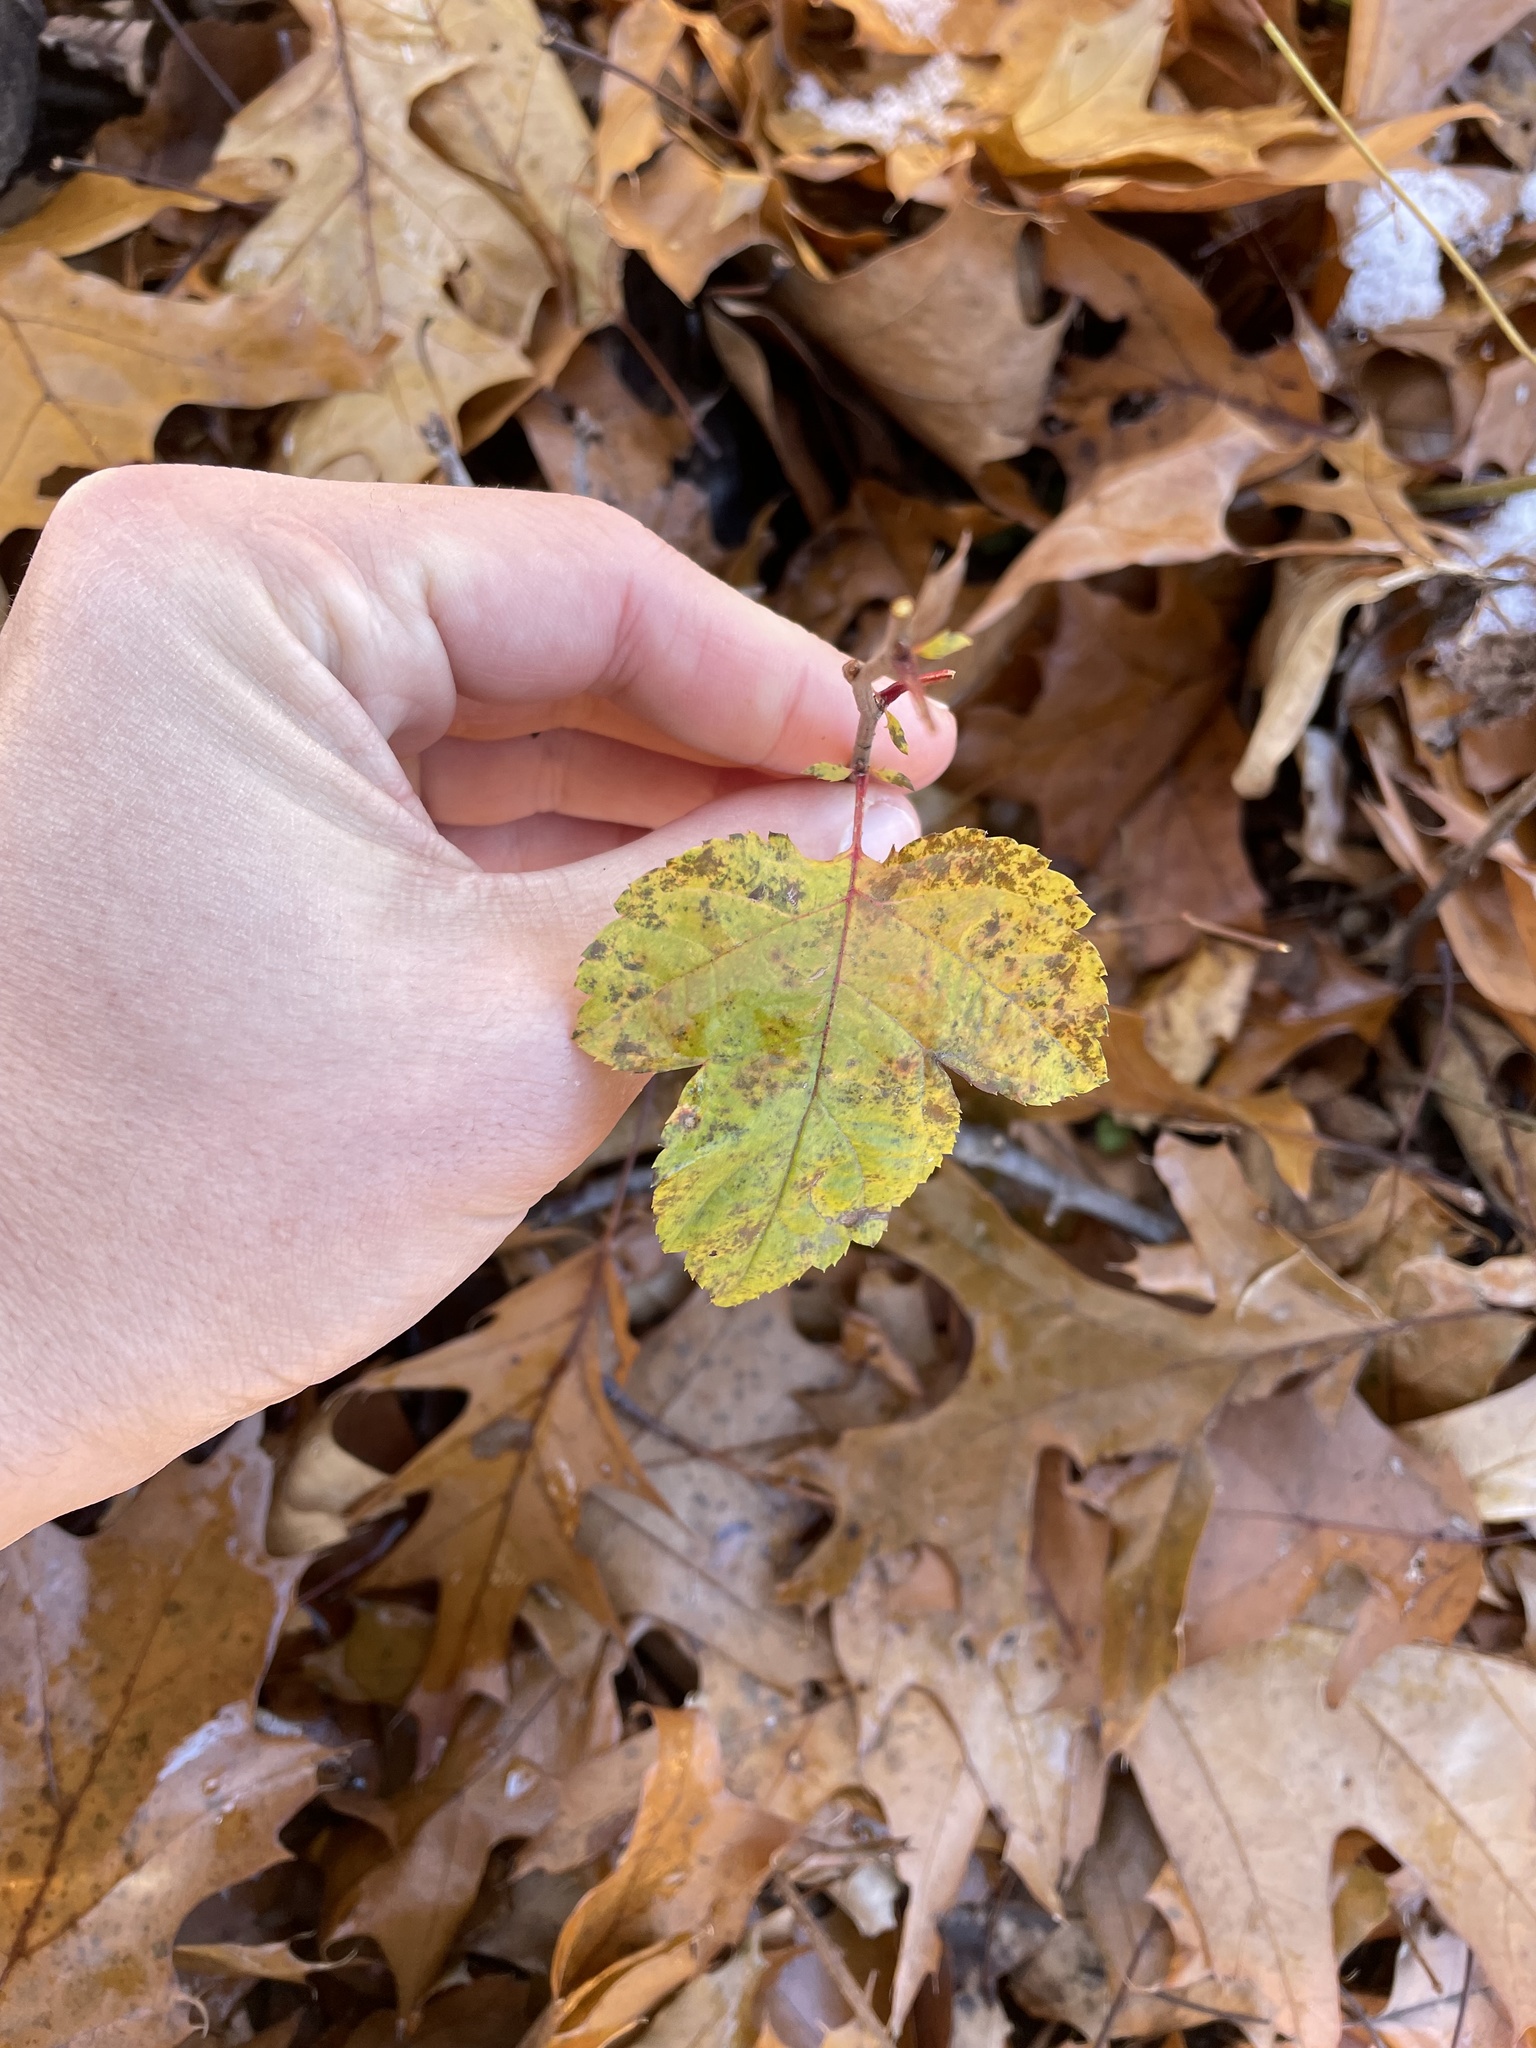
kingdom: Plantae
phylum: Tracheophyta
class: Magnoliopsida
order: Rosales
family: Rosaceae
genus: Physocarpus
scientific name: Physocarpus opulifolius
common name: Ninebark
